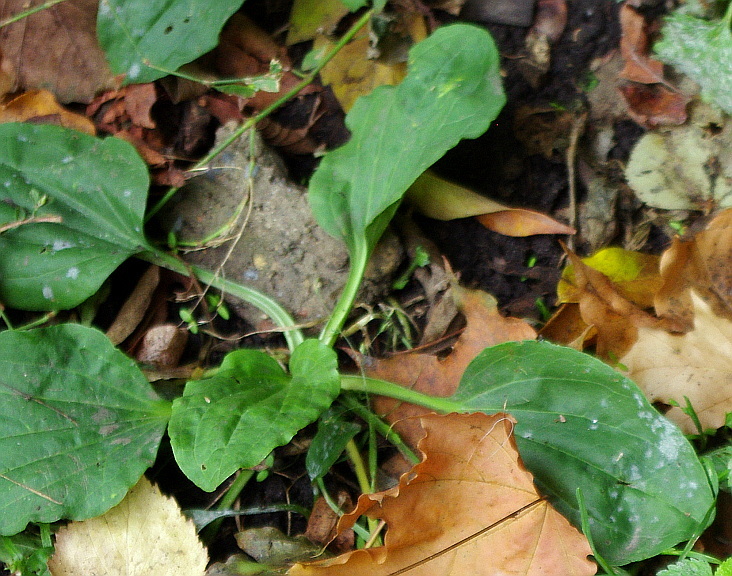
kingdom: Plantae
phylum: Tracheophyta
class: Magnoliopsida
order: Lamiales
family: Plantaginaceae
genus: Plantago
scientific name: Plantago major
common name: Common plantain
